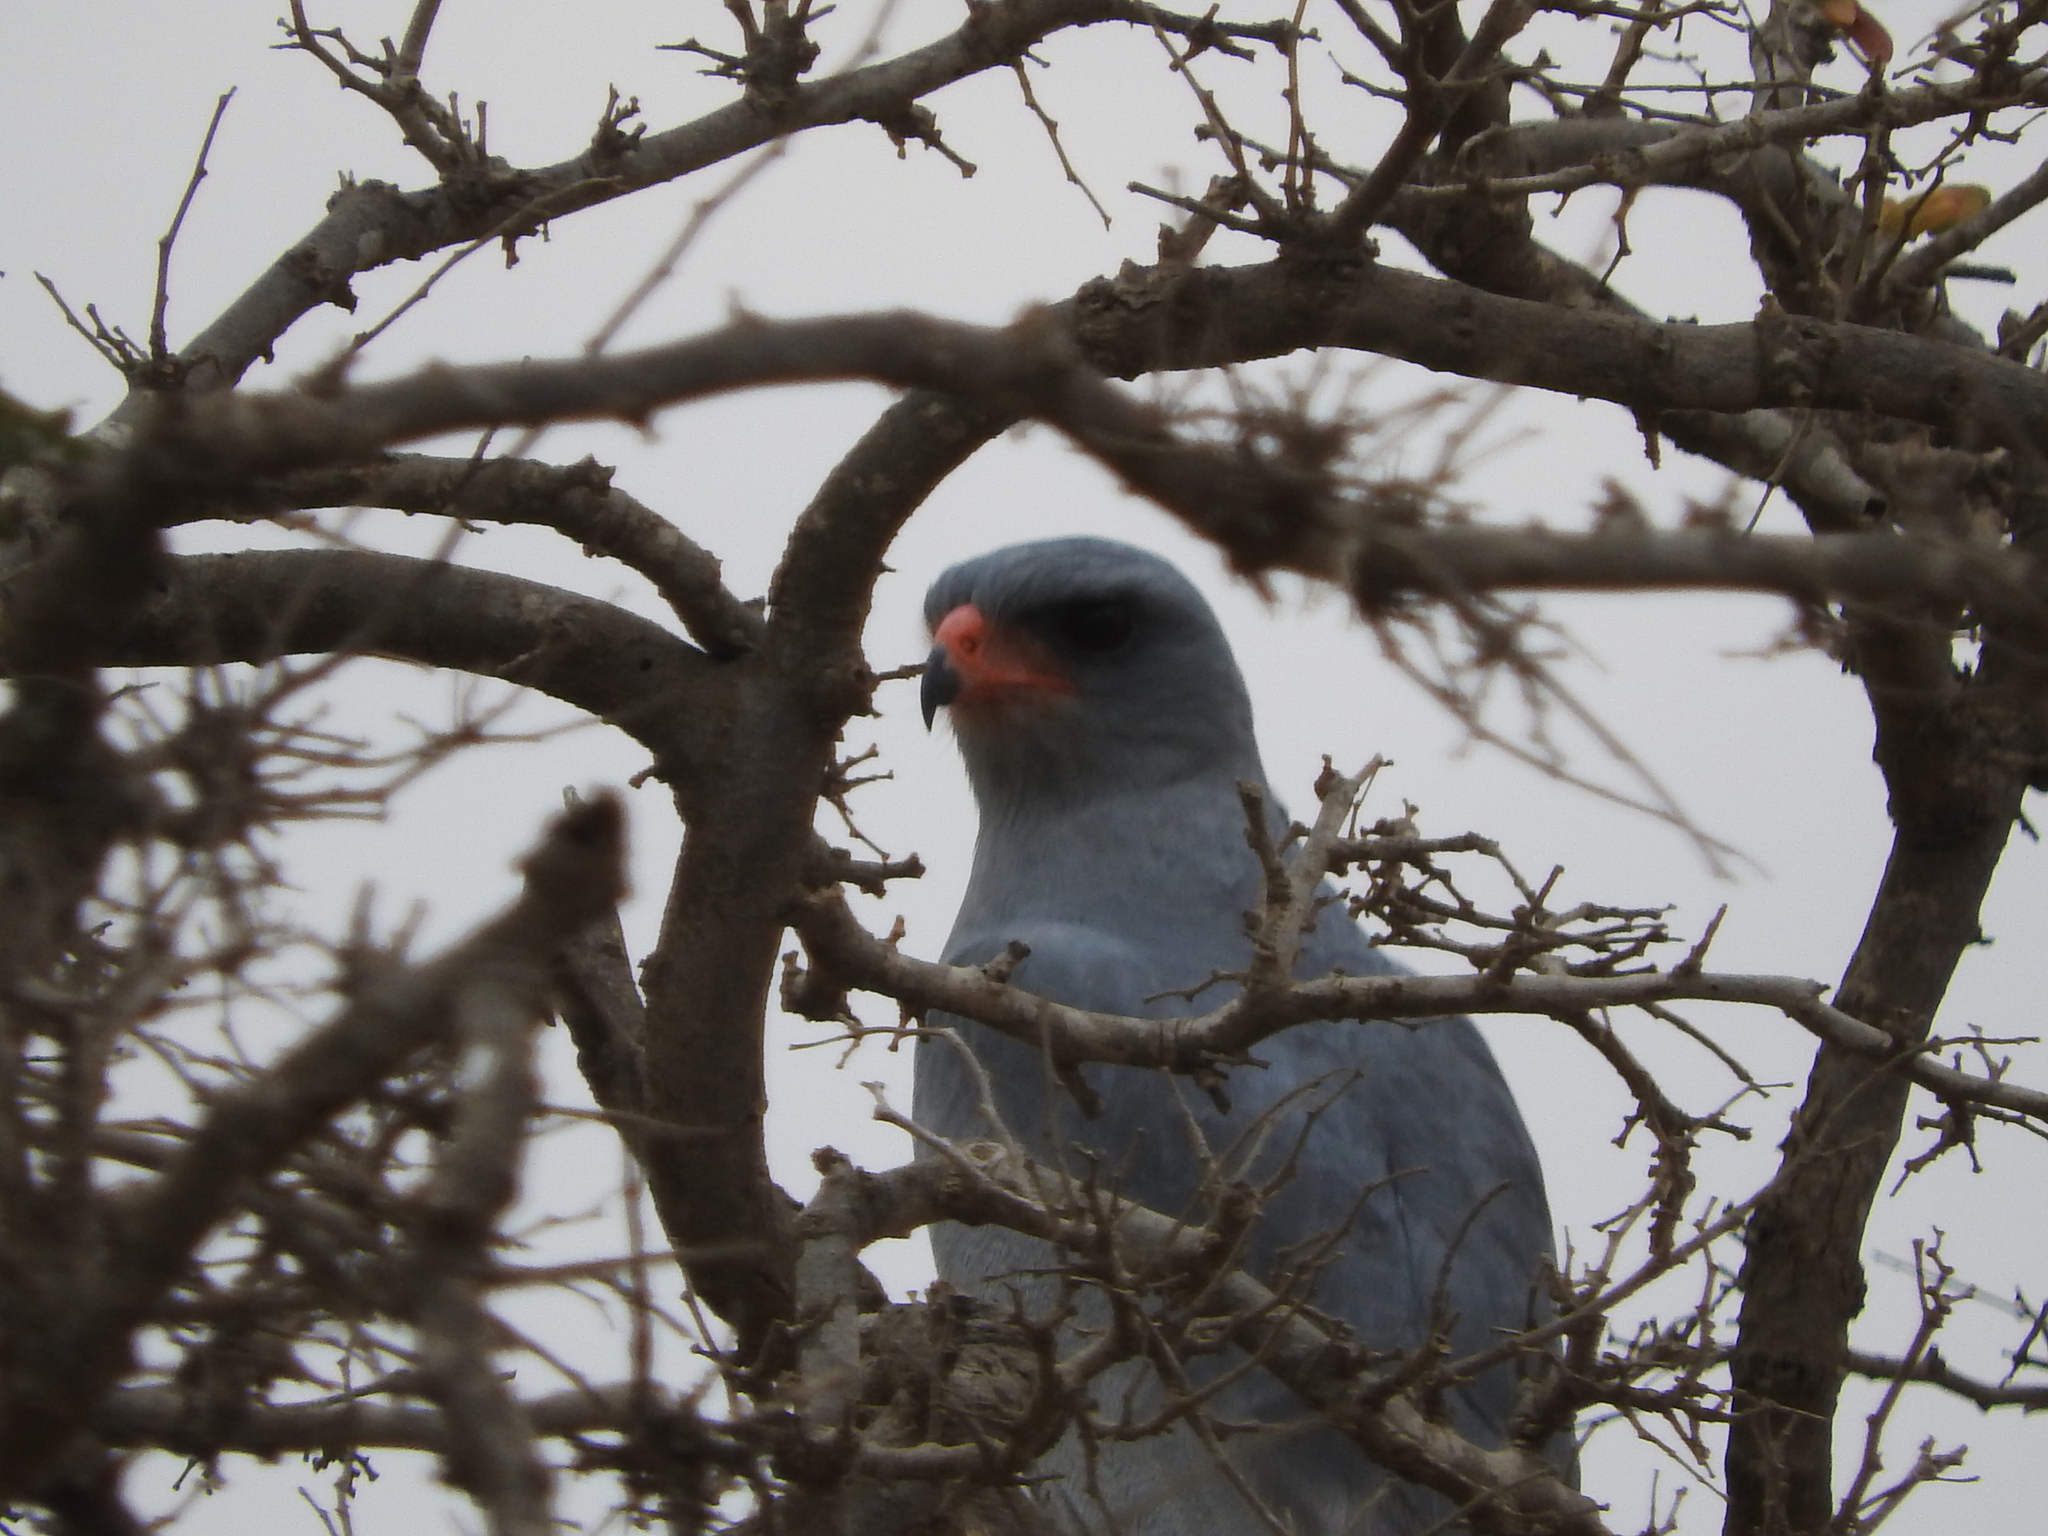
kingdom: Animalia
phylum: Chordata
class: Aves
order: Accipitriformes
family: Accipitridae
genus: Melierax
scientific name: Melierax metabates
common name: Dark chanting-goshawk
